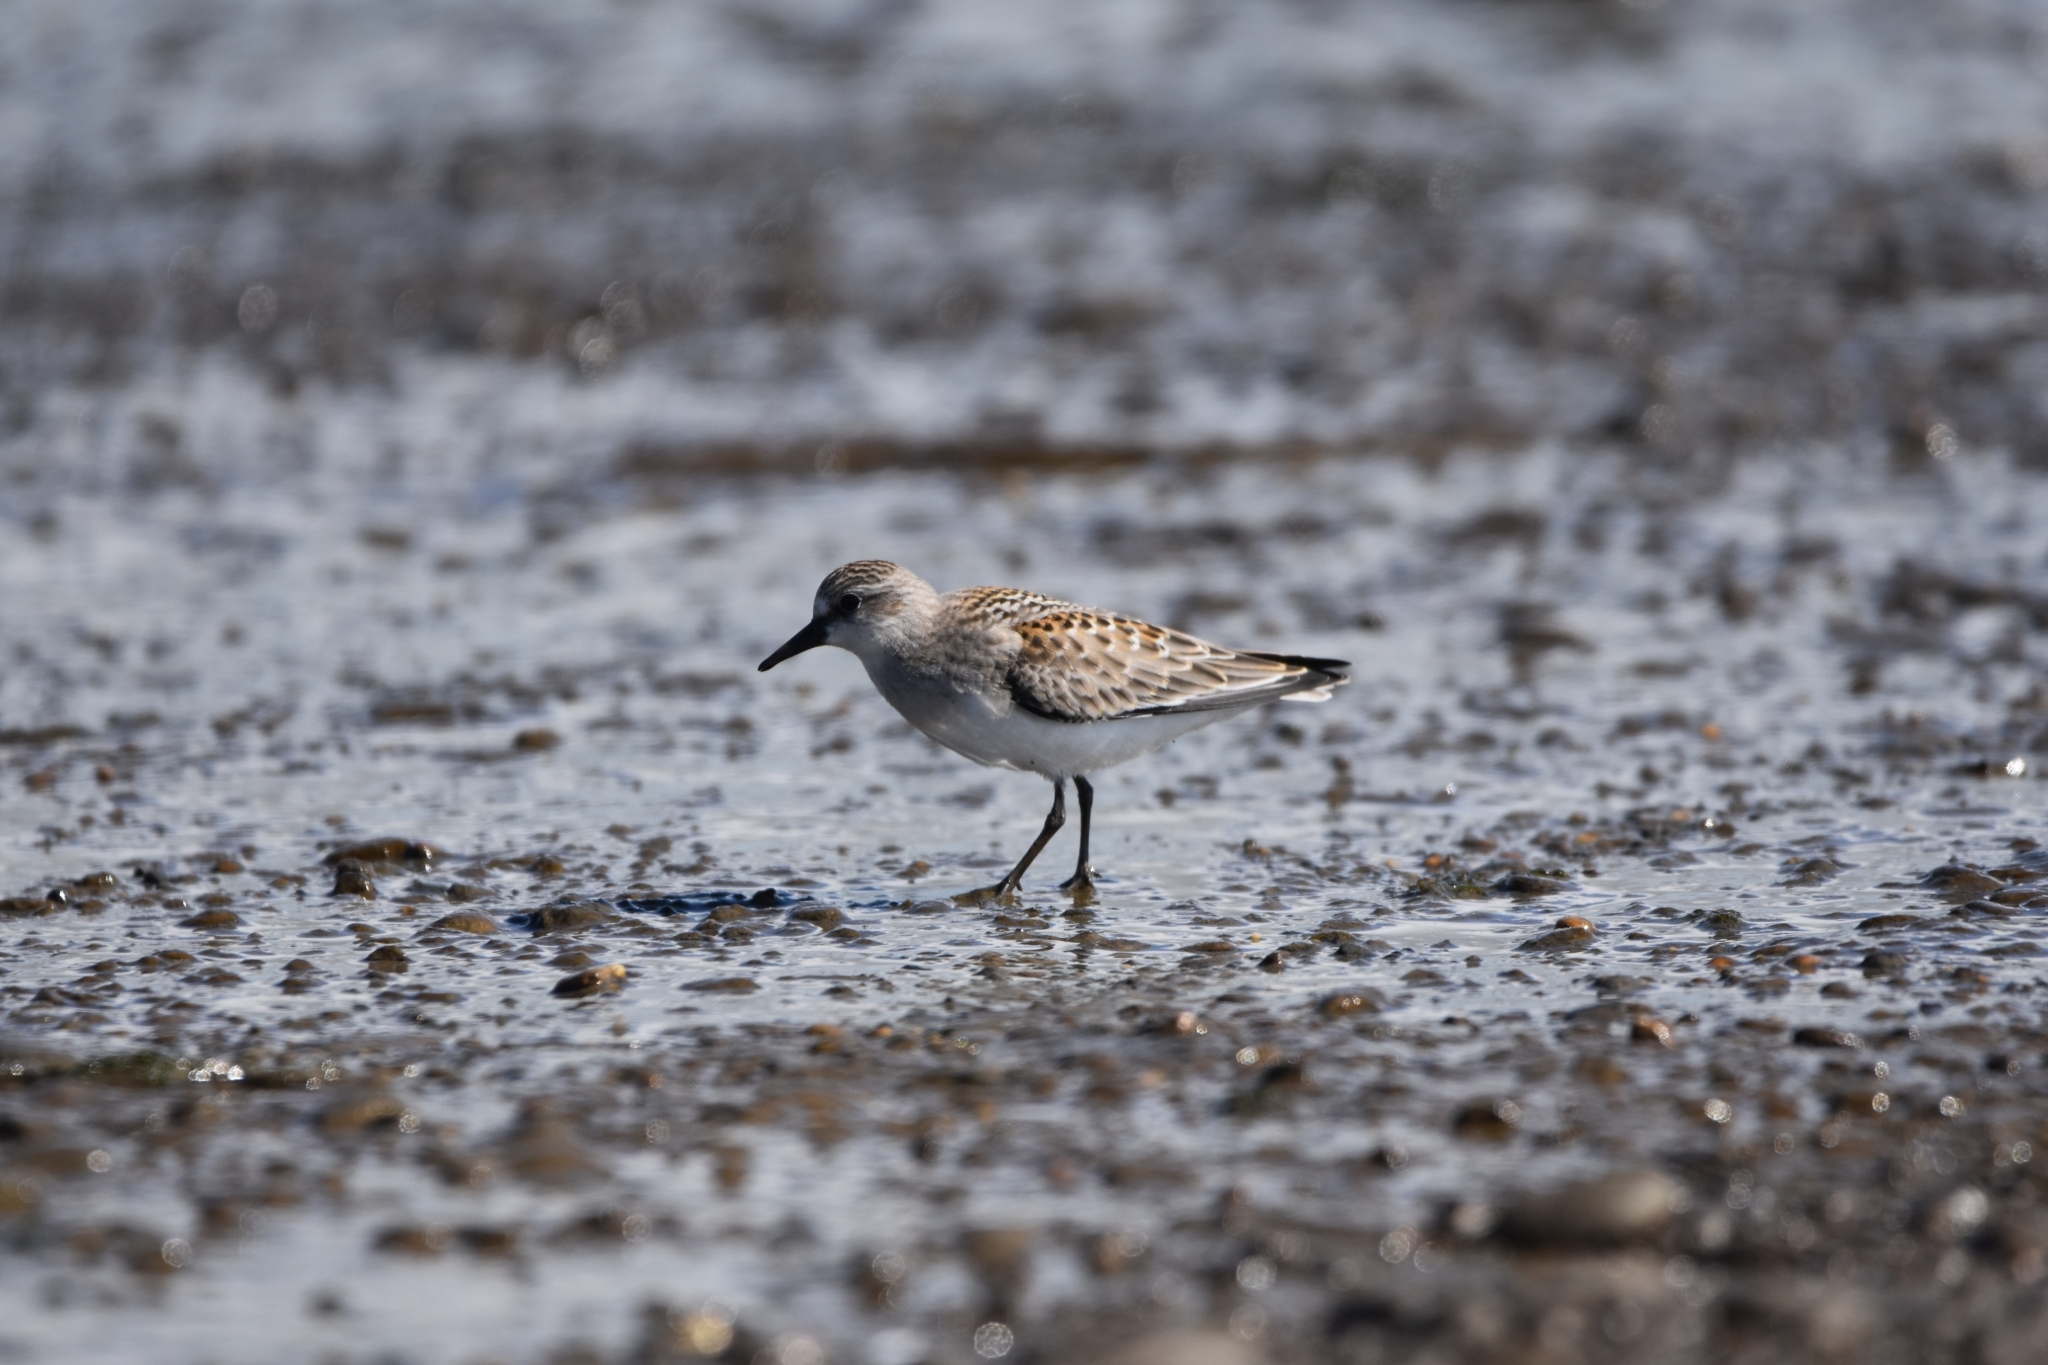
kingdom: Animalia
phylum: Chordata
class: Aves
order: Charadriiformes
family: Scolopacidae
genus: Calidris
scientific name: Calidris ruficollis
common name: Red-necked stint
